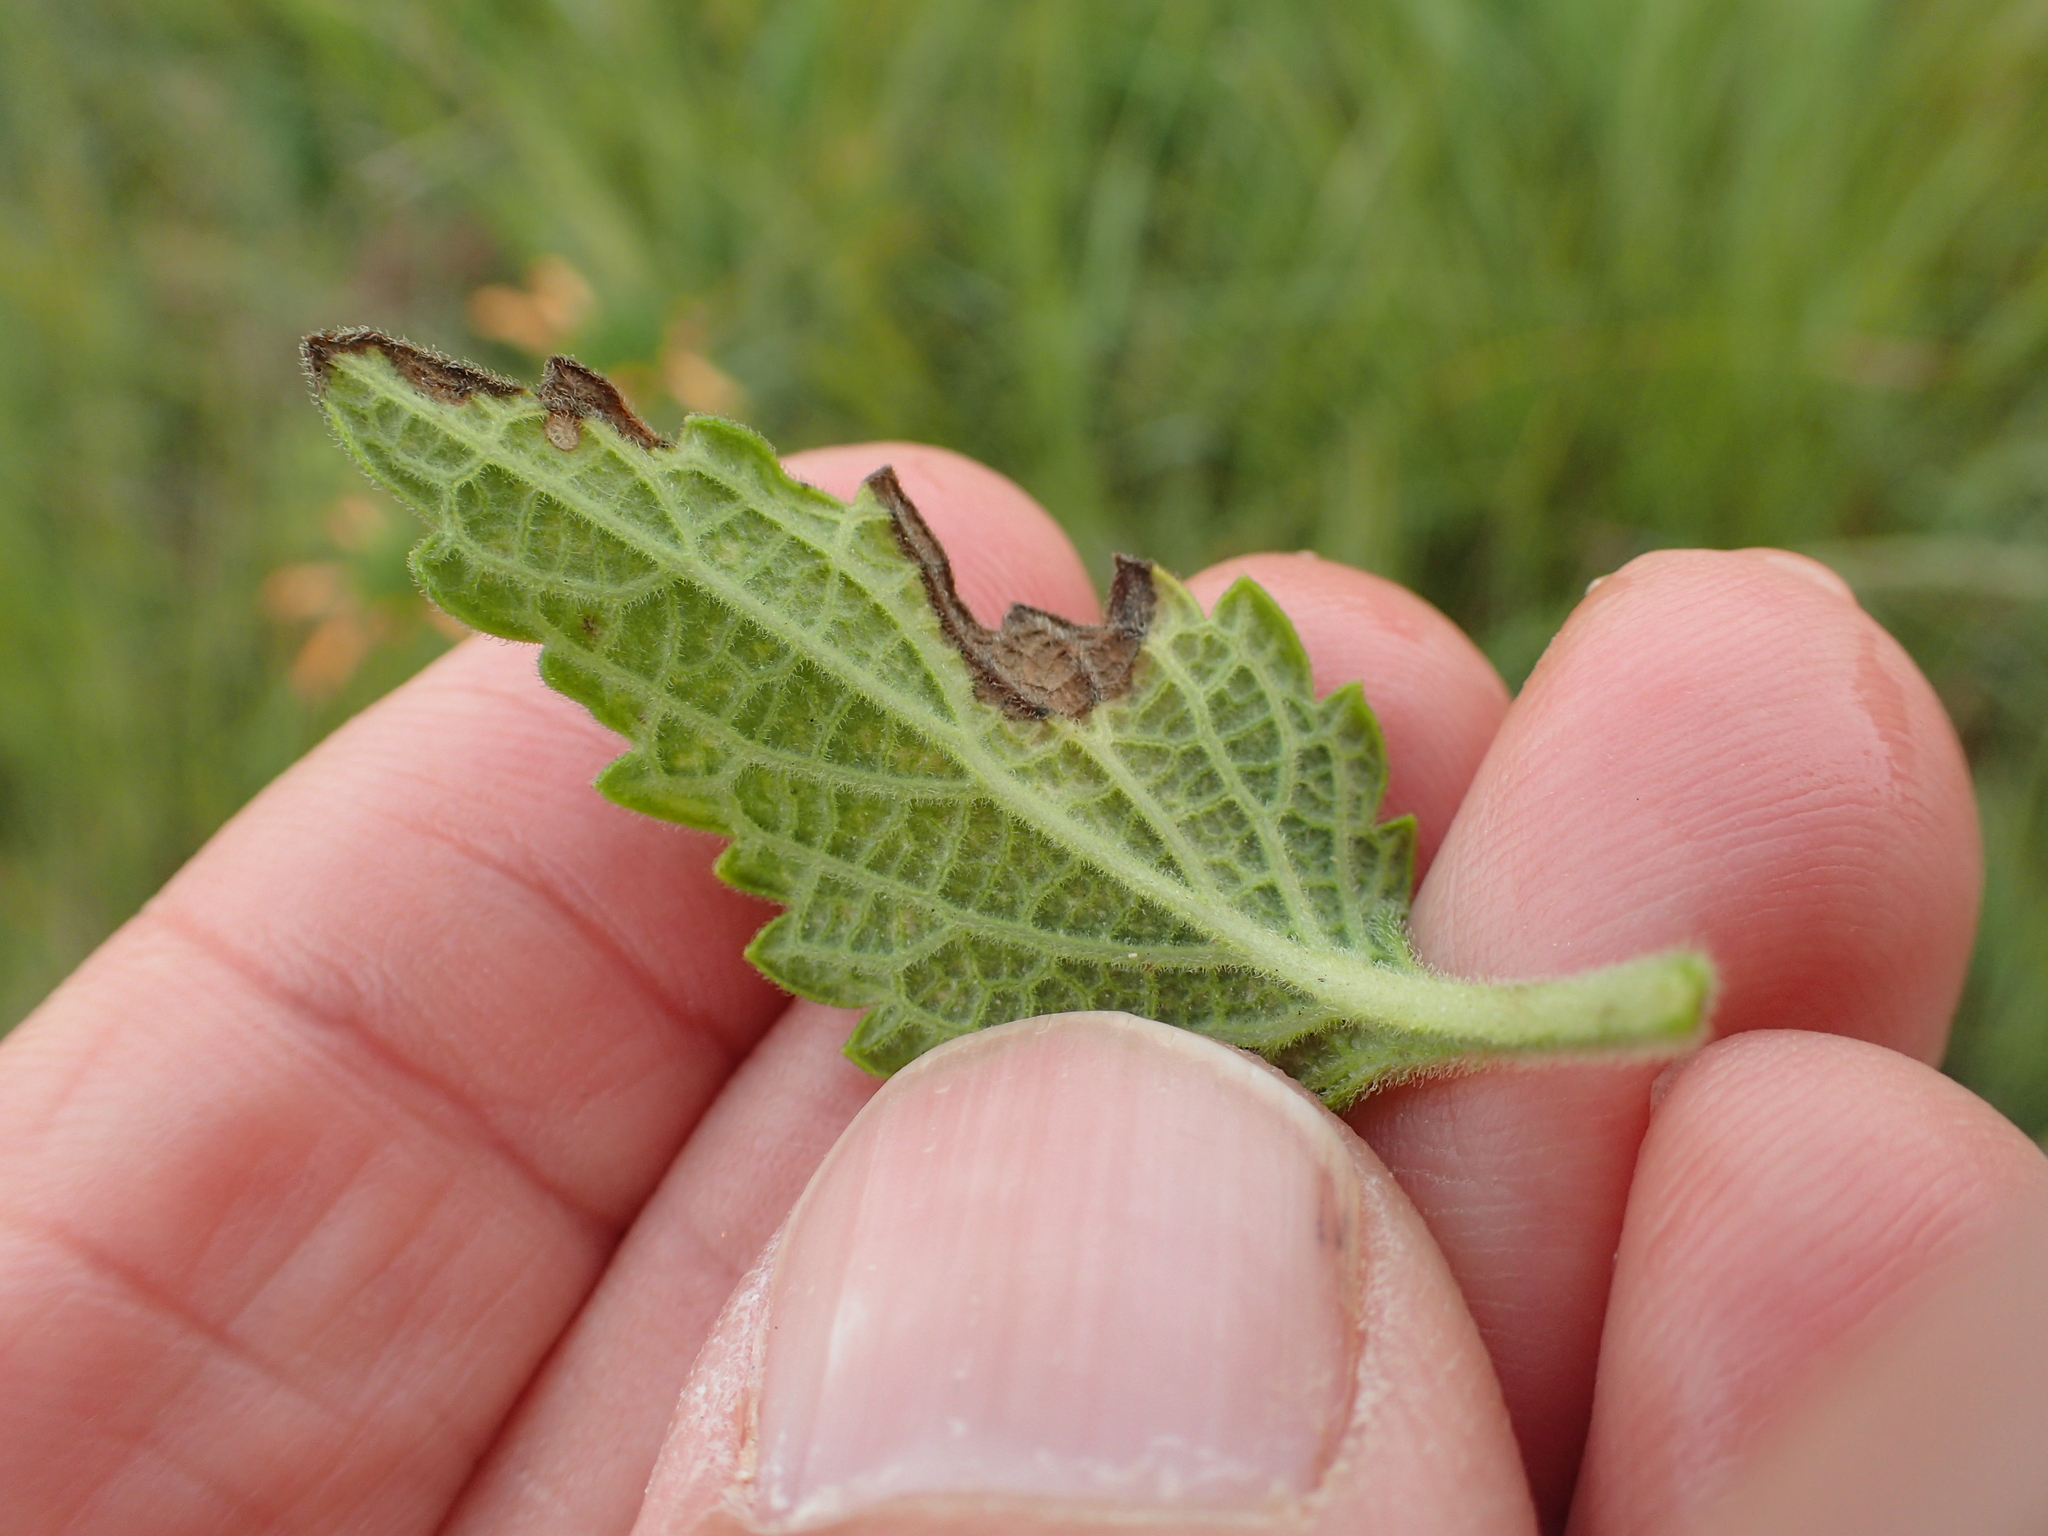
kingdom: Plantae
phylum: Tracheophyta
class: Magnoliopsida
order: Lamiales
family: Lamiaceae
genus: Leonotis
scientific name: Leonotis ocymifolia
